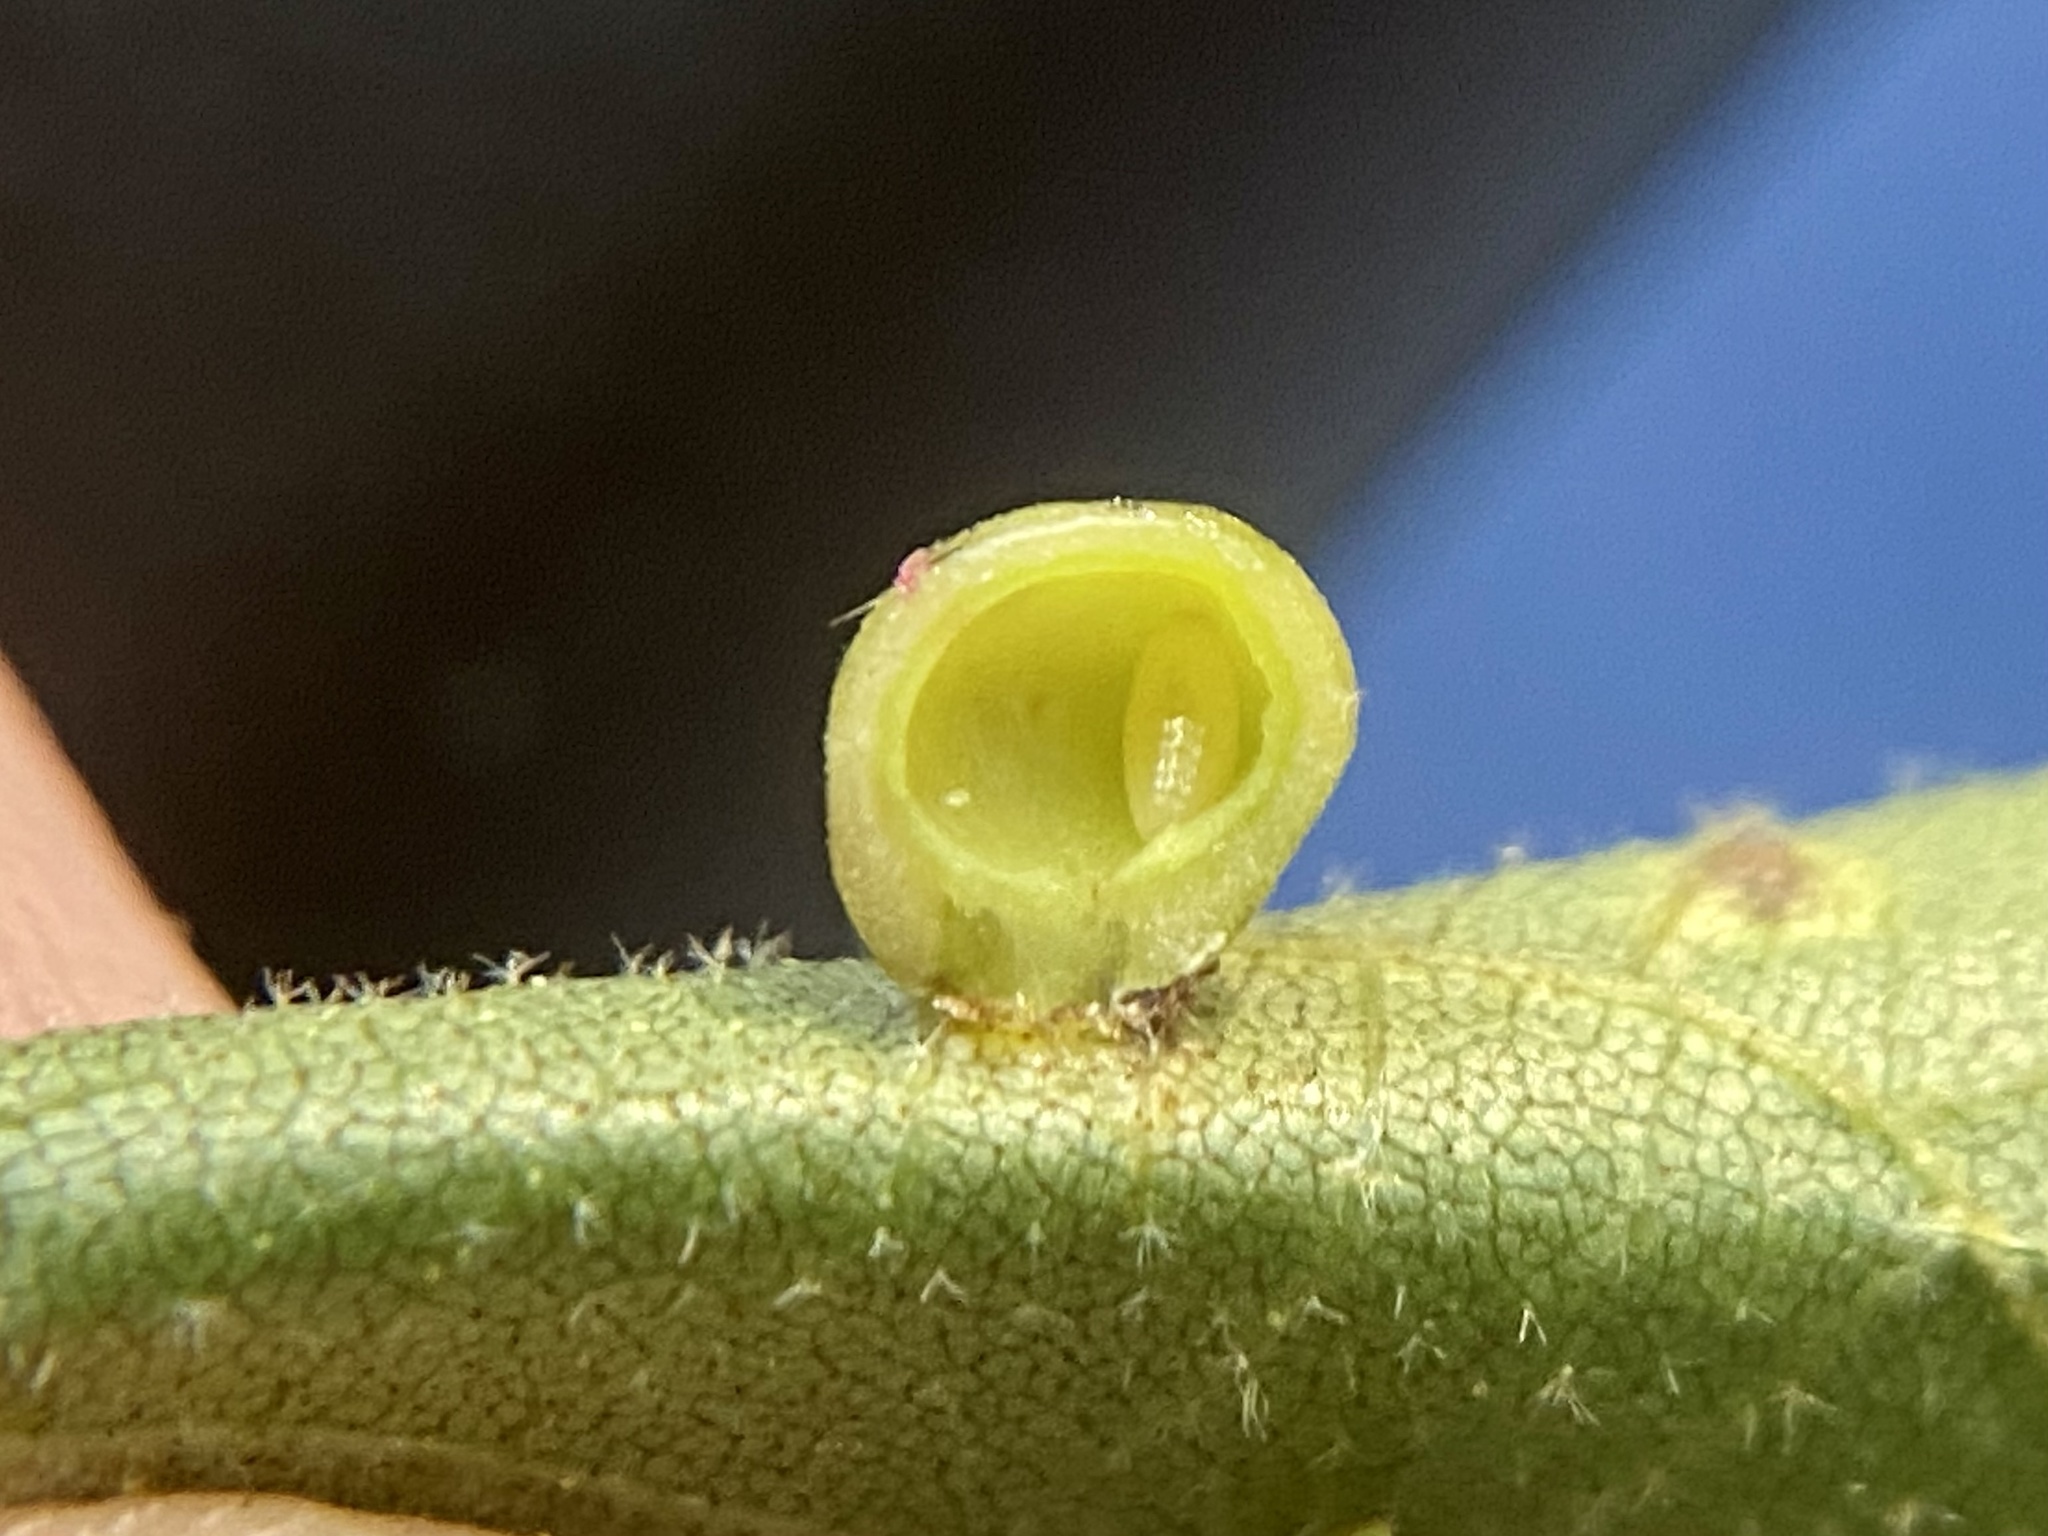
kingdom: Animalia
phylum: Arthropoda
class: Insecta
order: Diptera
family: Cecidomyiidae
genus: Caryomyia
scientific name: Caryomyia caryae
